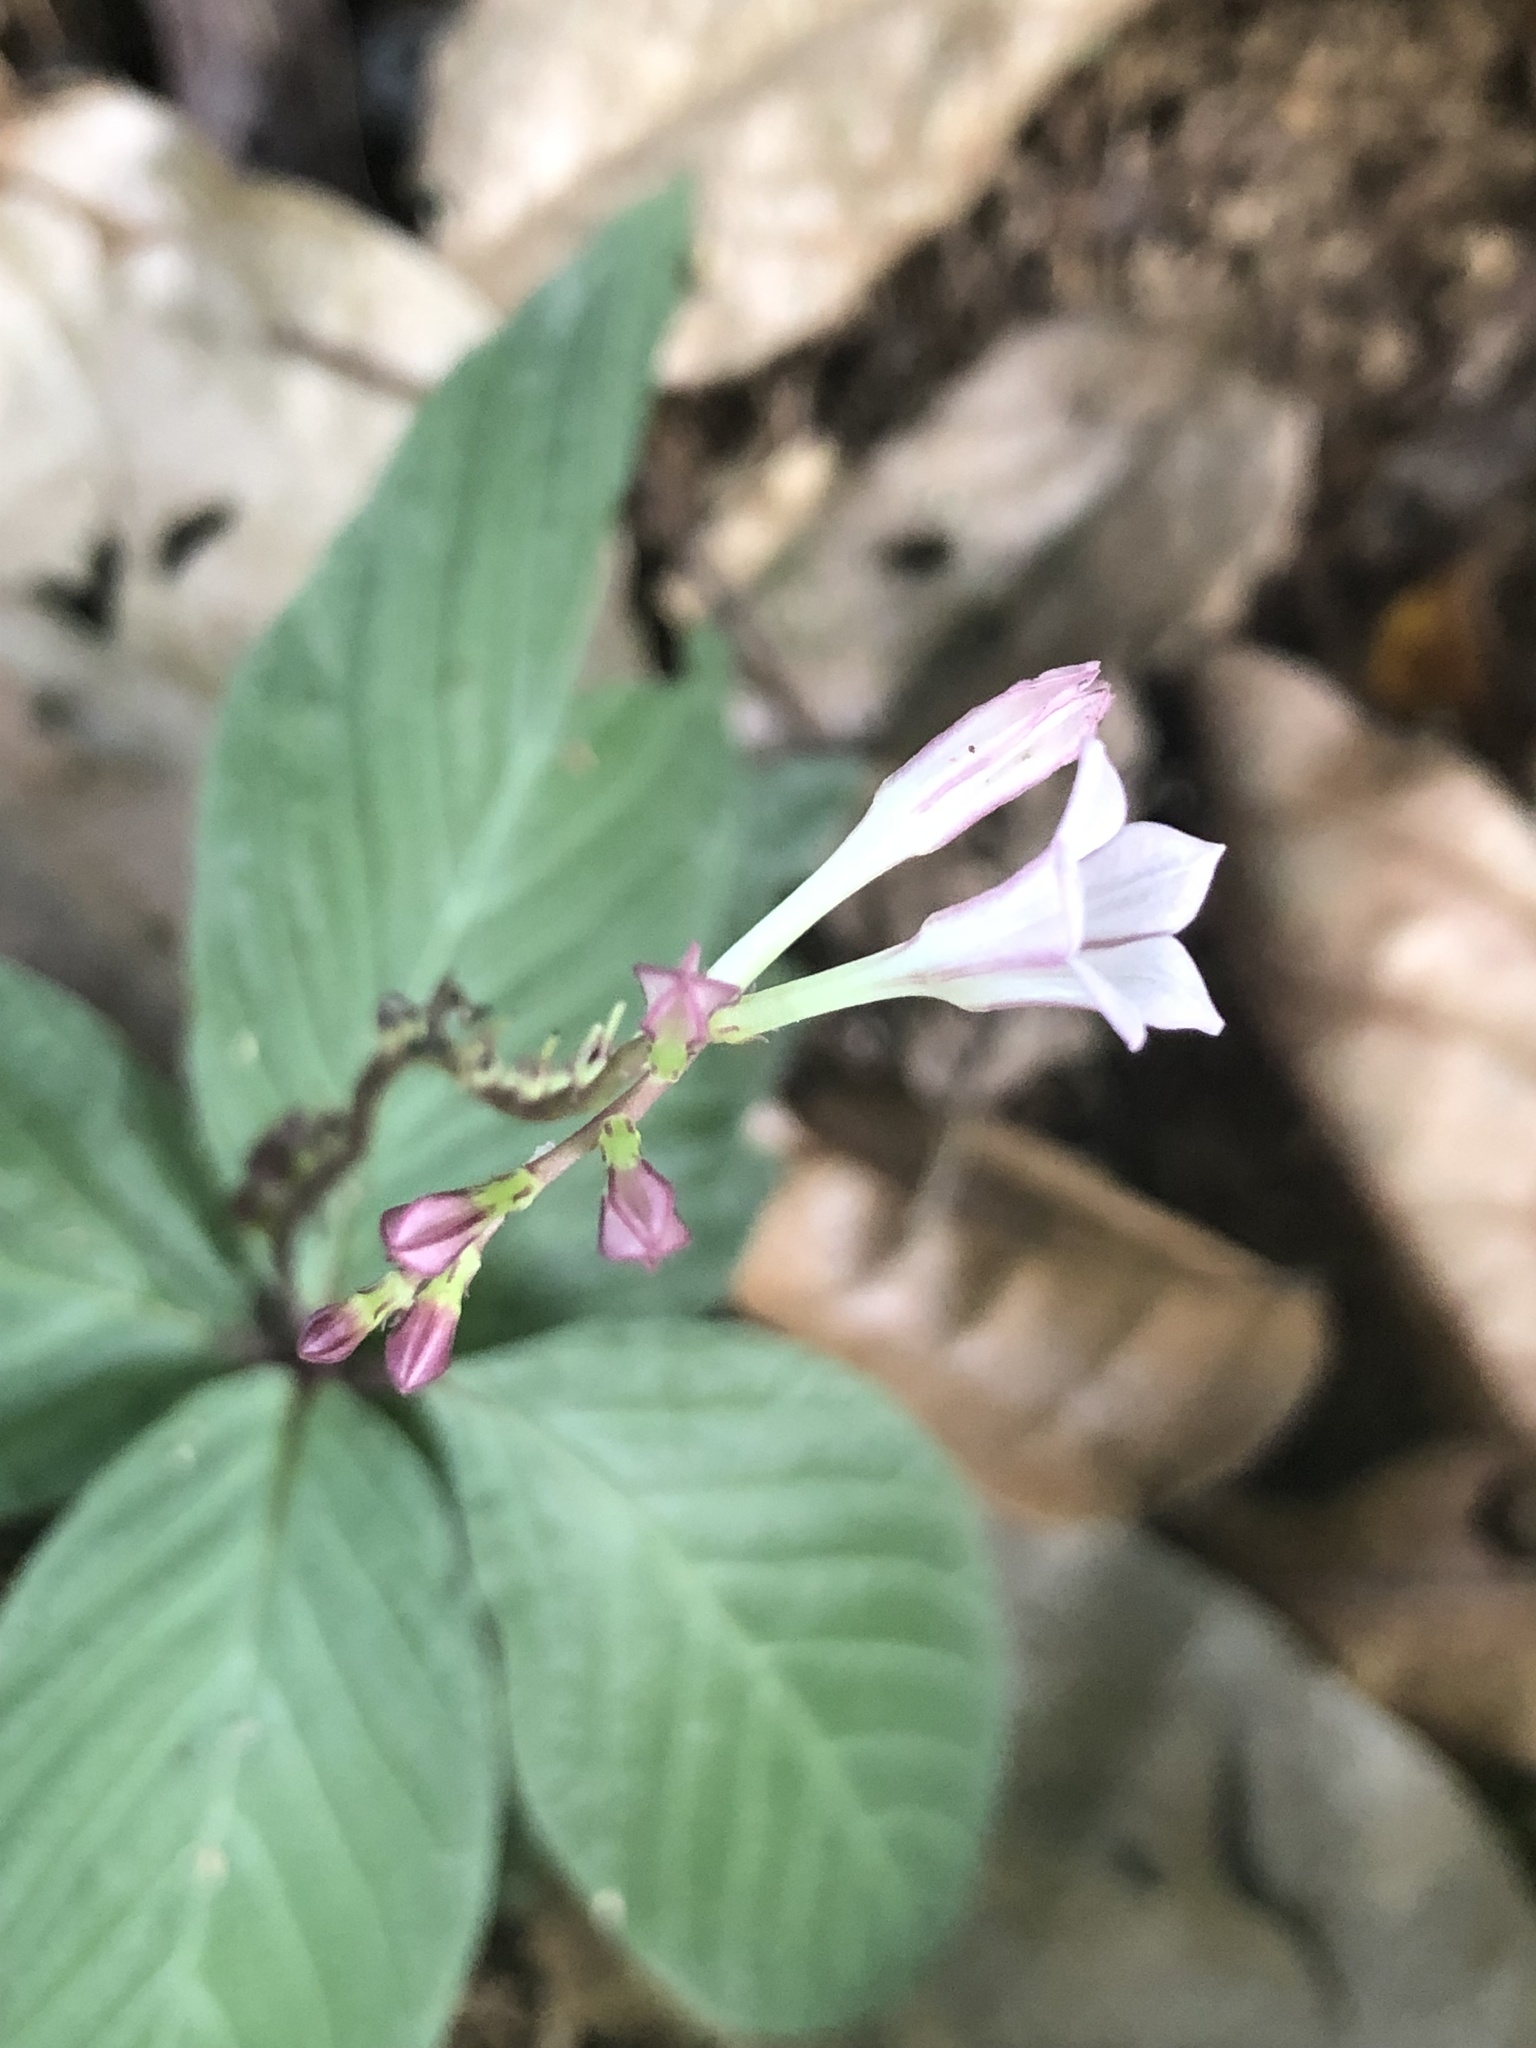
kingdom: Plantae
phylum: Tracheophyta
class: Magnoliopsida
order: Gentianales
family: Loganiaceae
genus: Spigelia
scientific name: Spigelia dolichostachya
